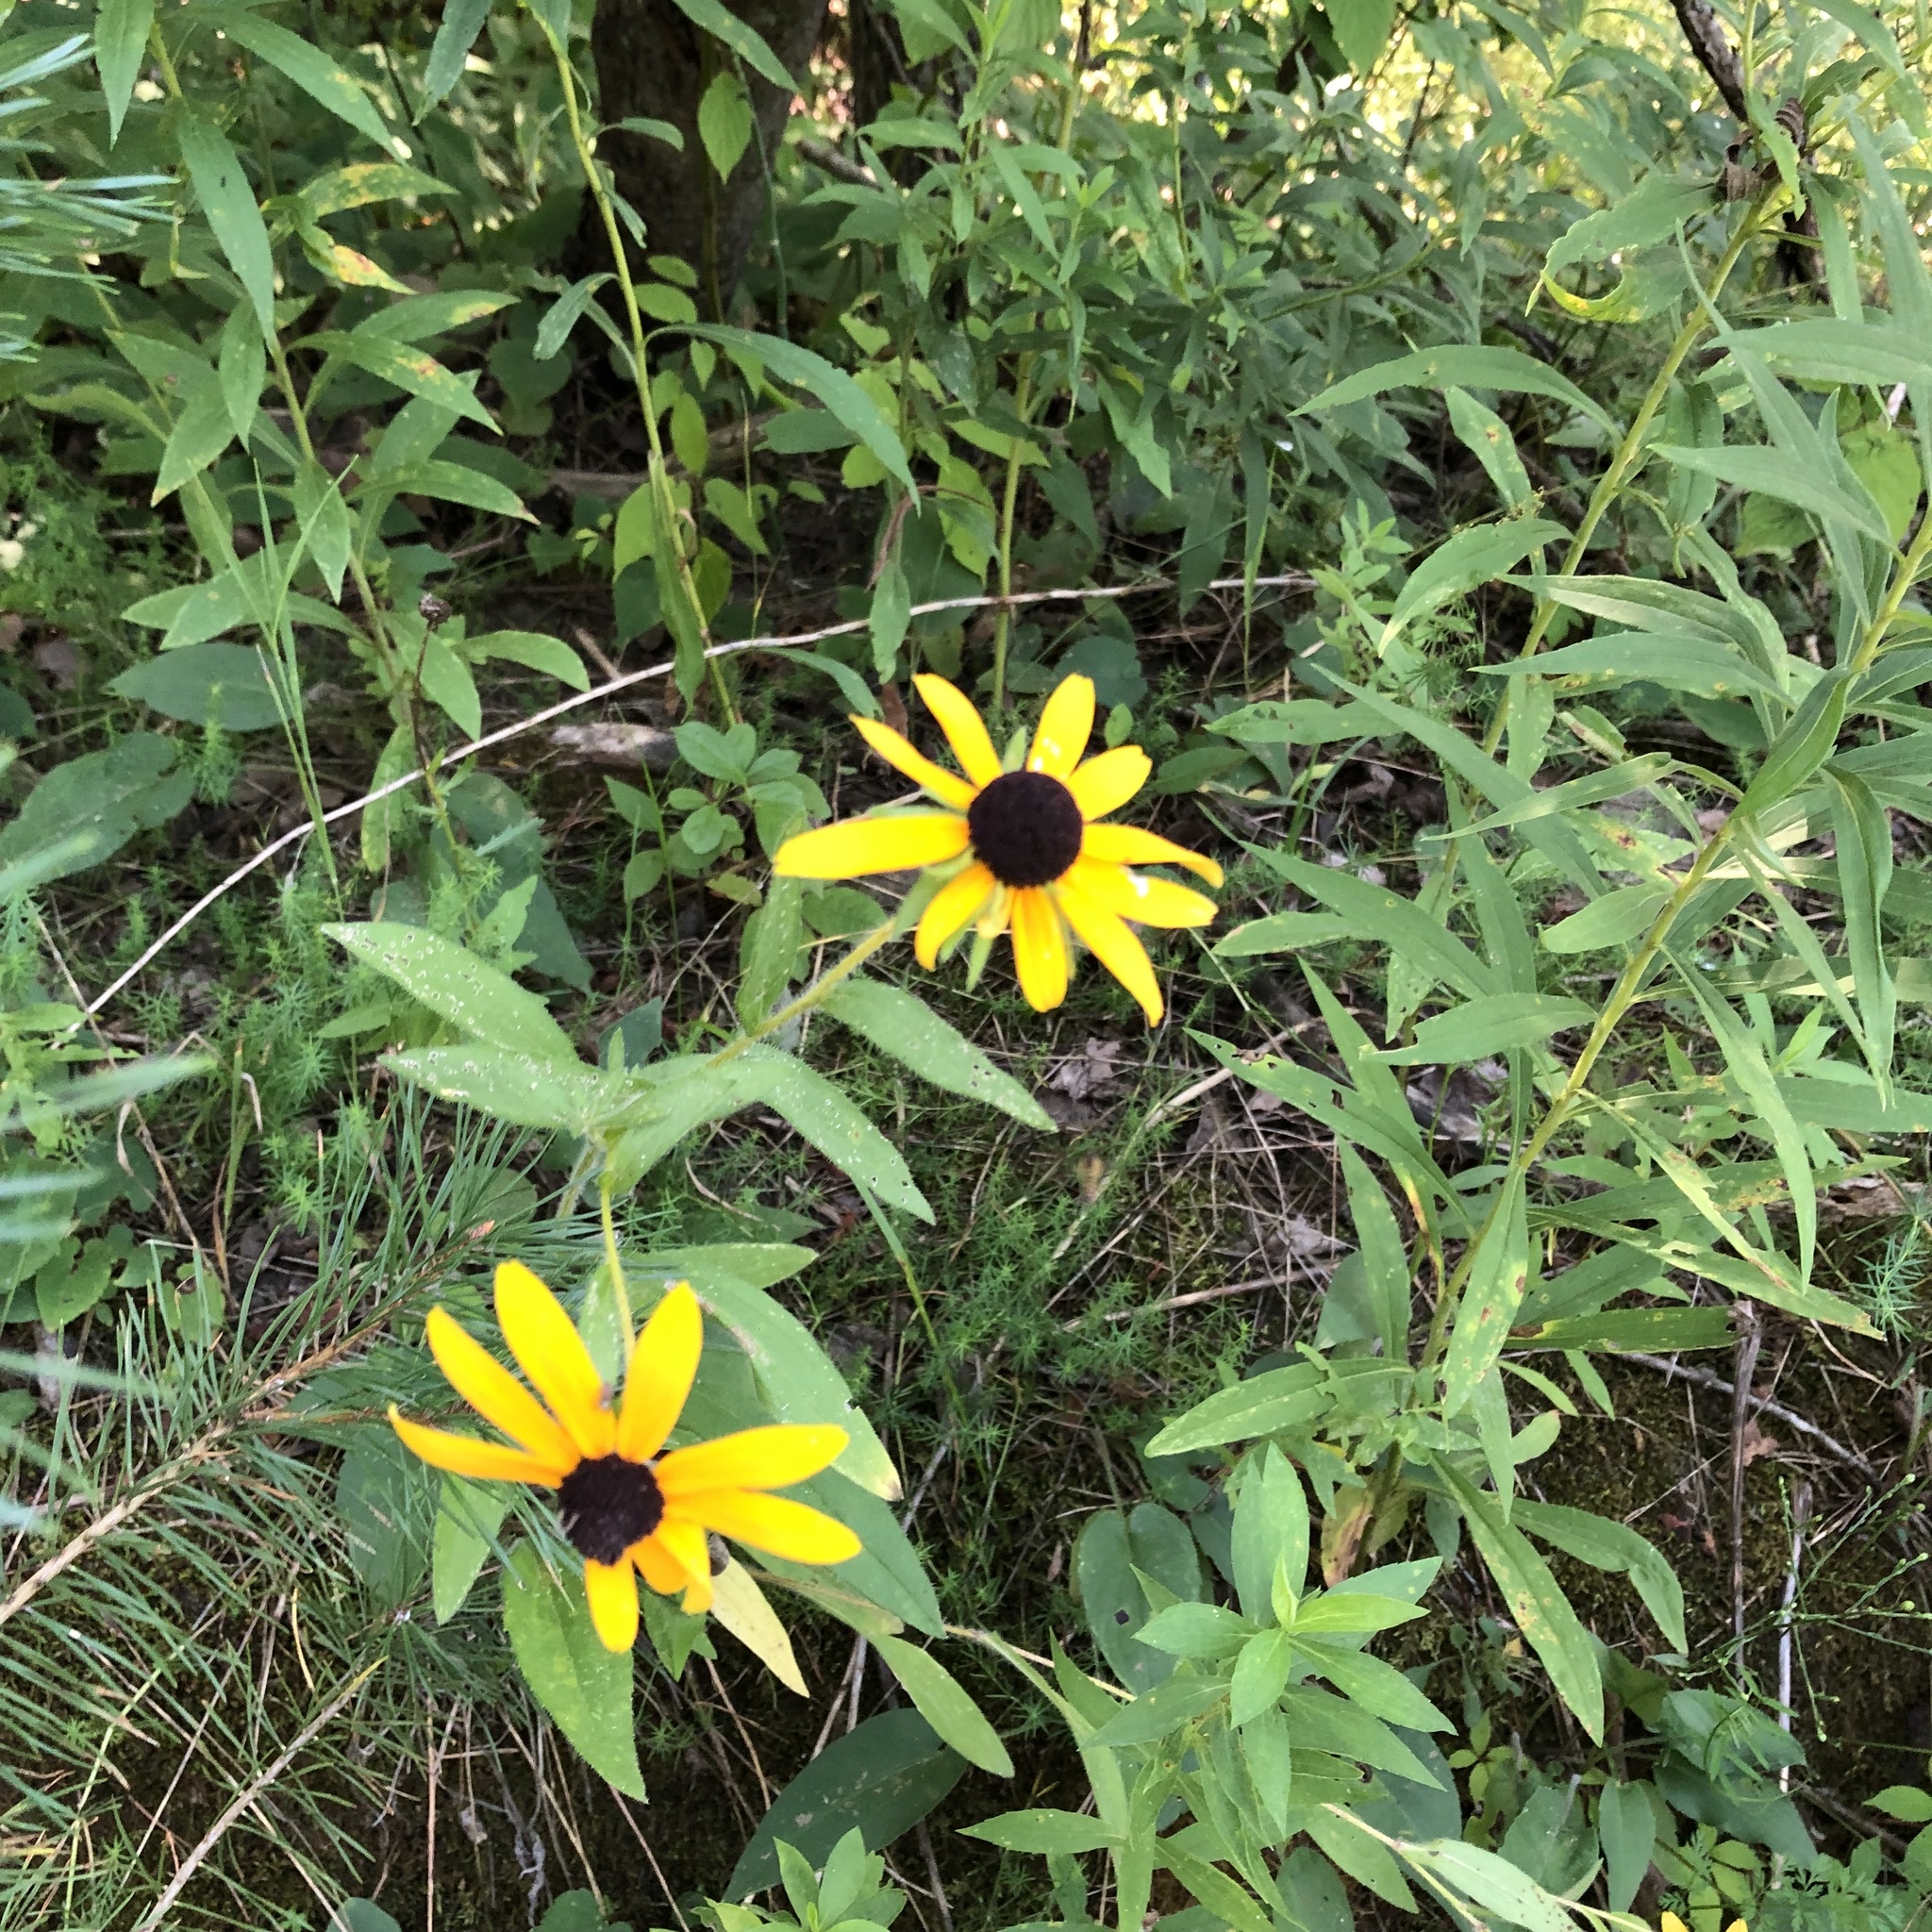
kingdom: Plantae
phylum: Tracheophyta
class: Magnoliopsida
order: Asterales
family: Asteraceae
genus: Rudbeckia
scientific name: Rudbeckia hirta
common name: Black-eyed-susan
